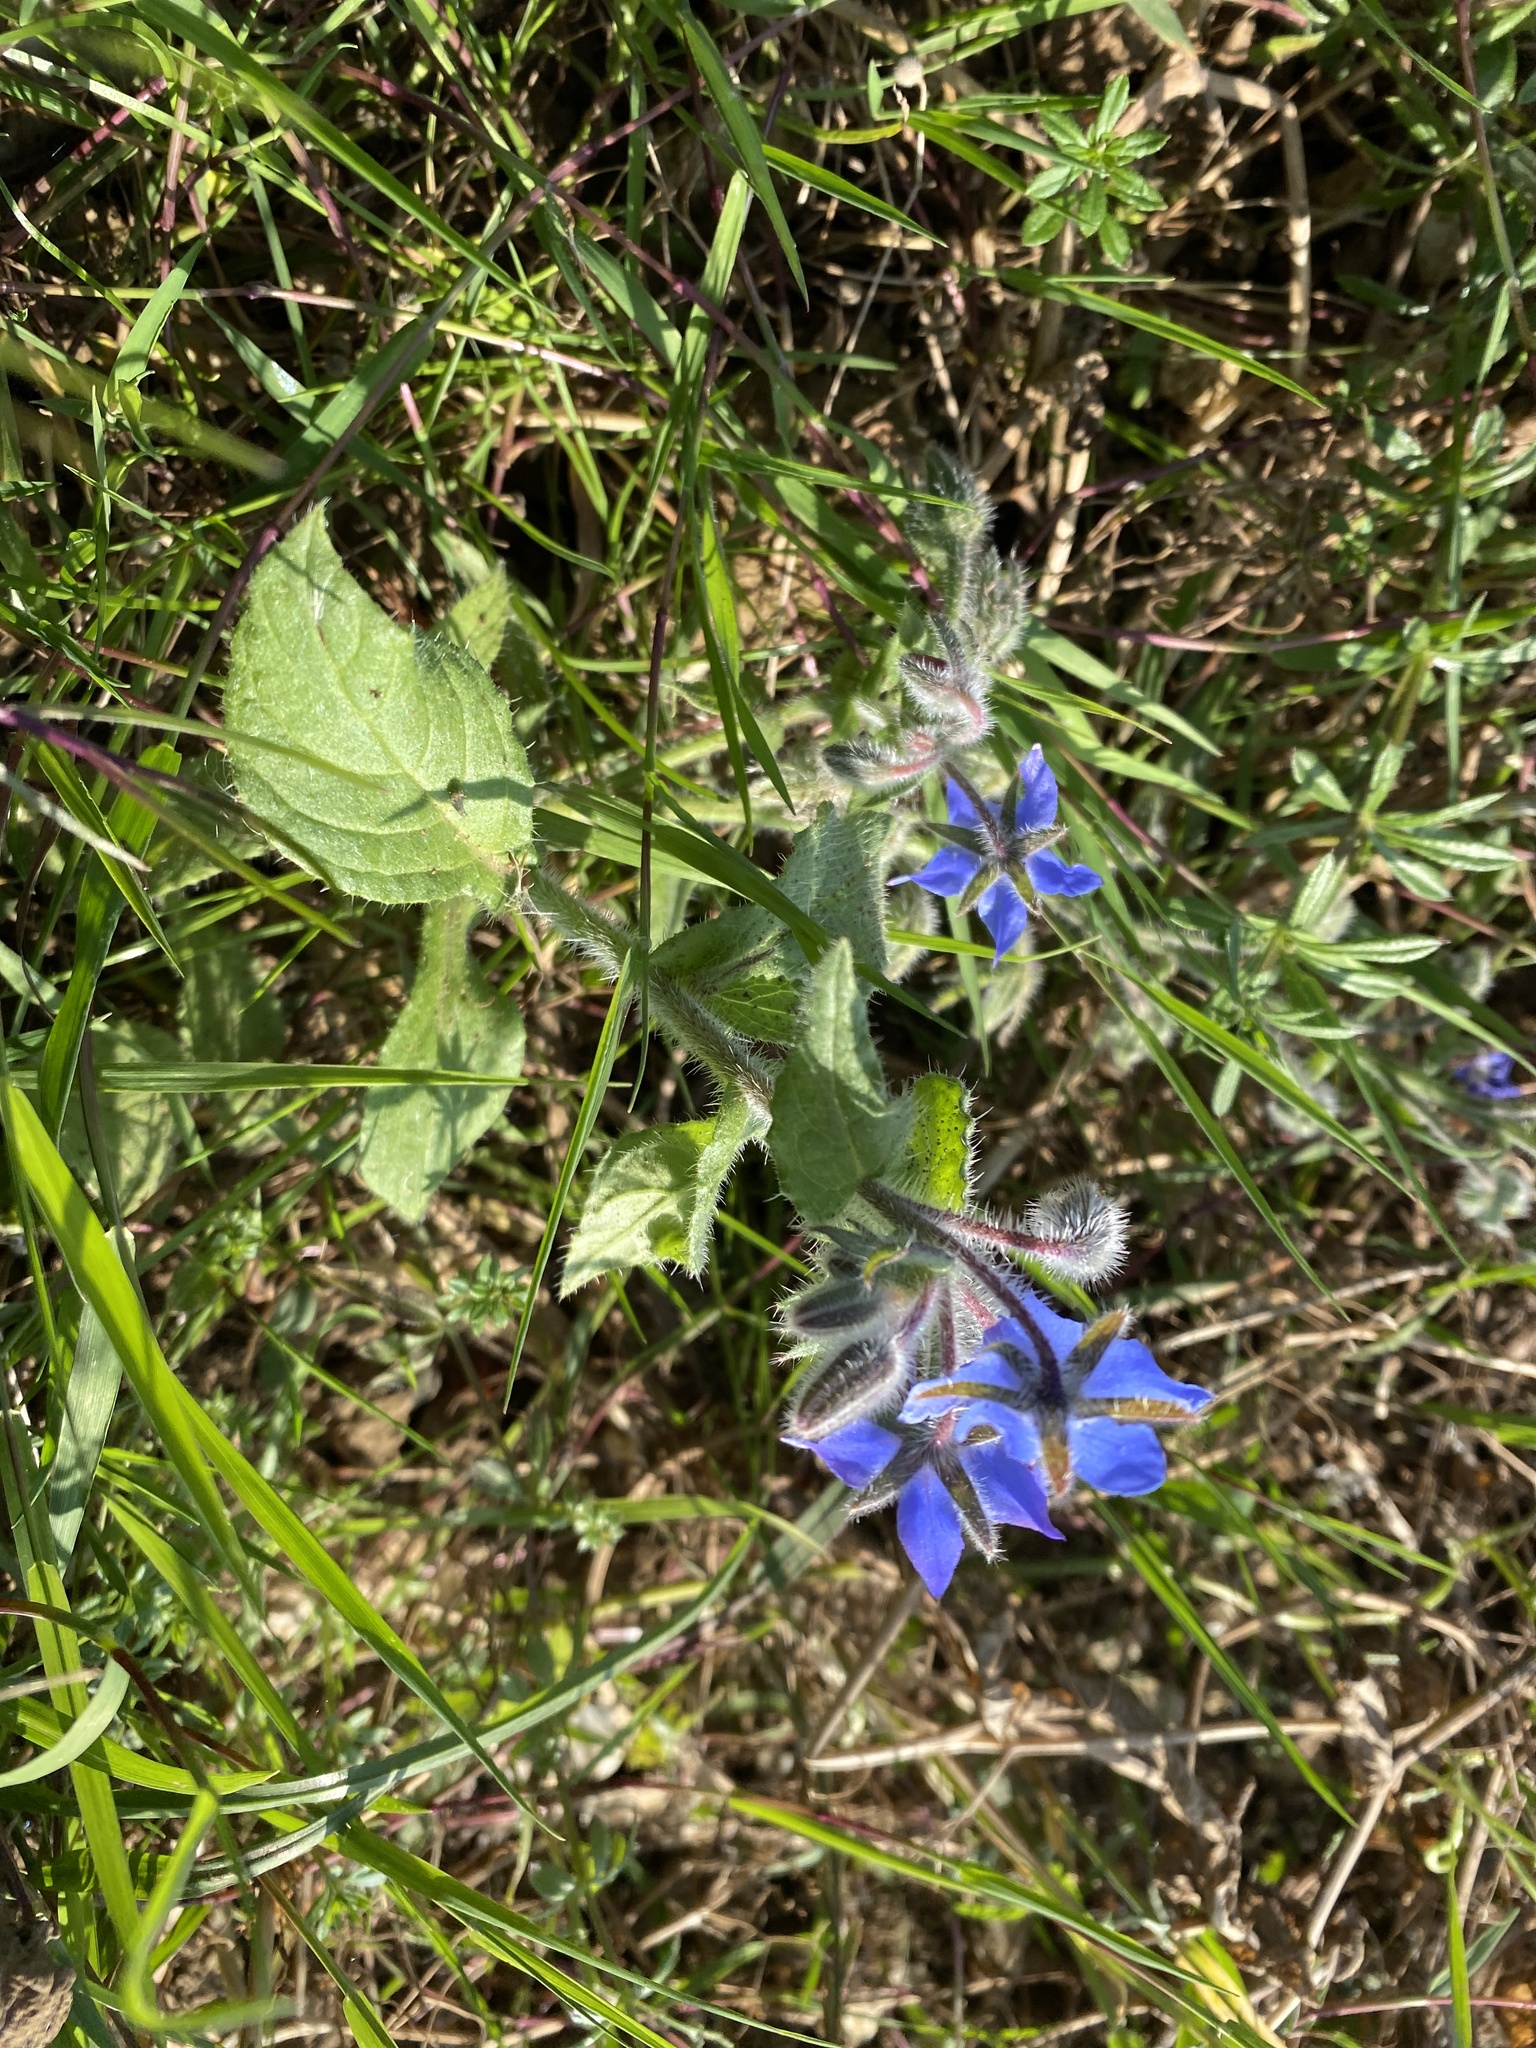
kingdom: Plantae
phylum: Tracheophyta
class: Magnoliopsida
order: Boraginales
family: Boraginaceae
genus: Borago
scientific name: Borago officinalis
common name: Borage
